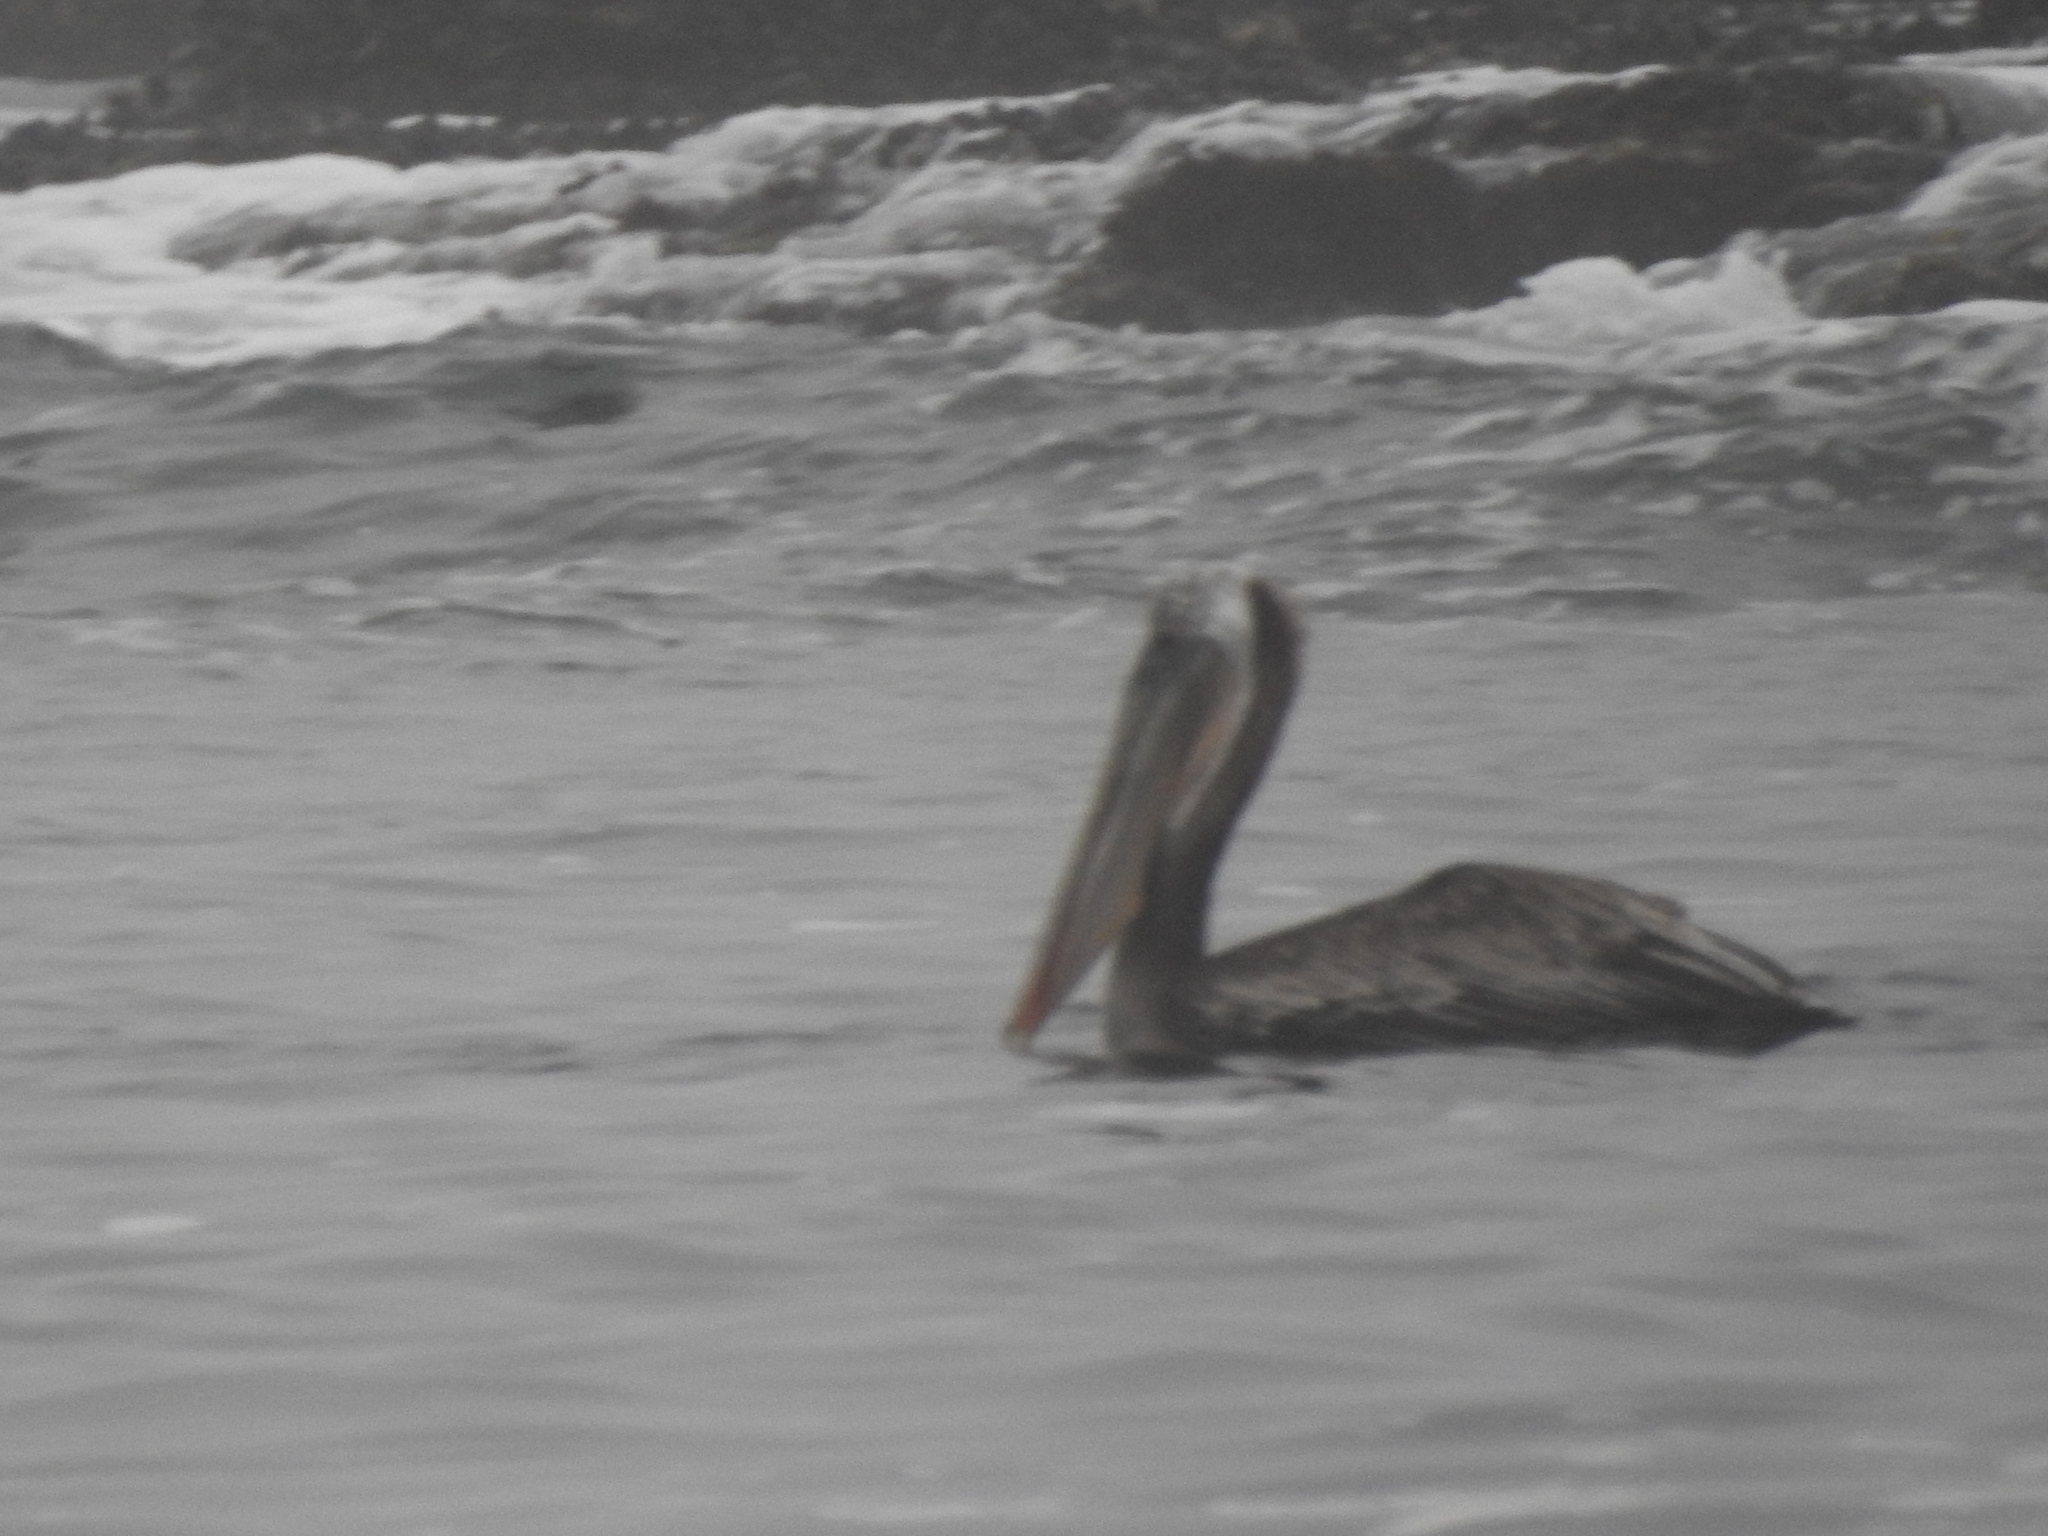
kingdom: Animalia
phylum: Chordata
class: Aves
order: Pelecaniformes
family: Pelecanidae
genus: Pelecanus
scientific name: Pelecanus occidentalis
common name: Brown pelican
